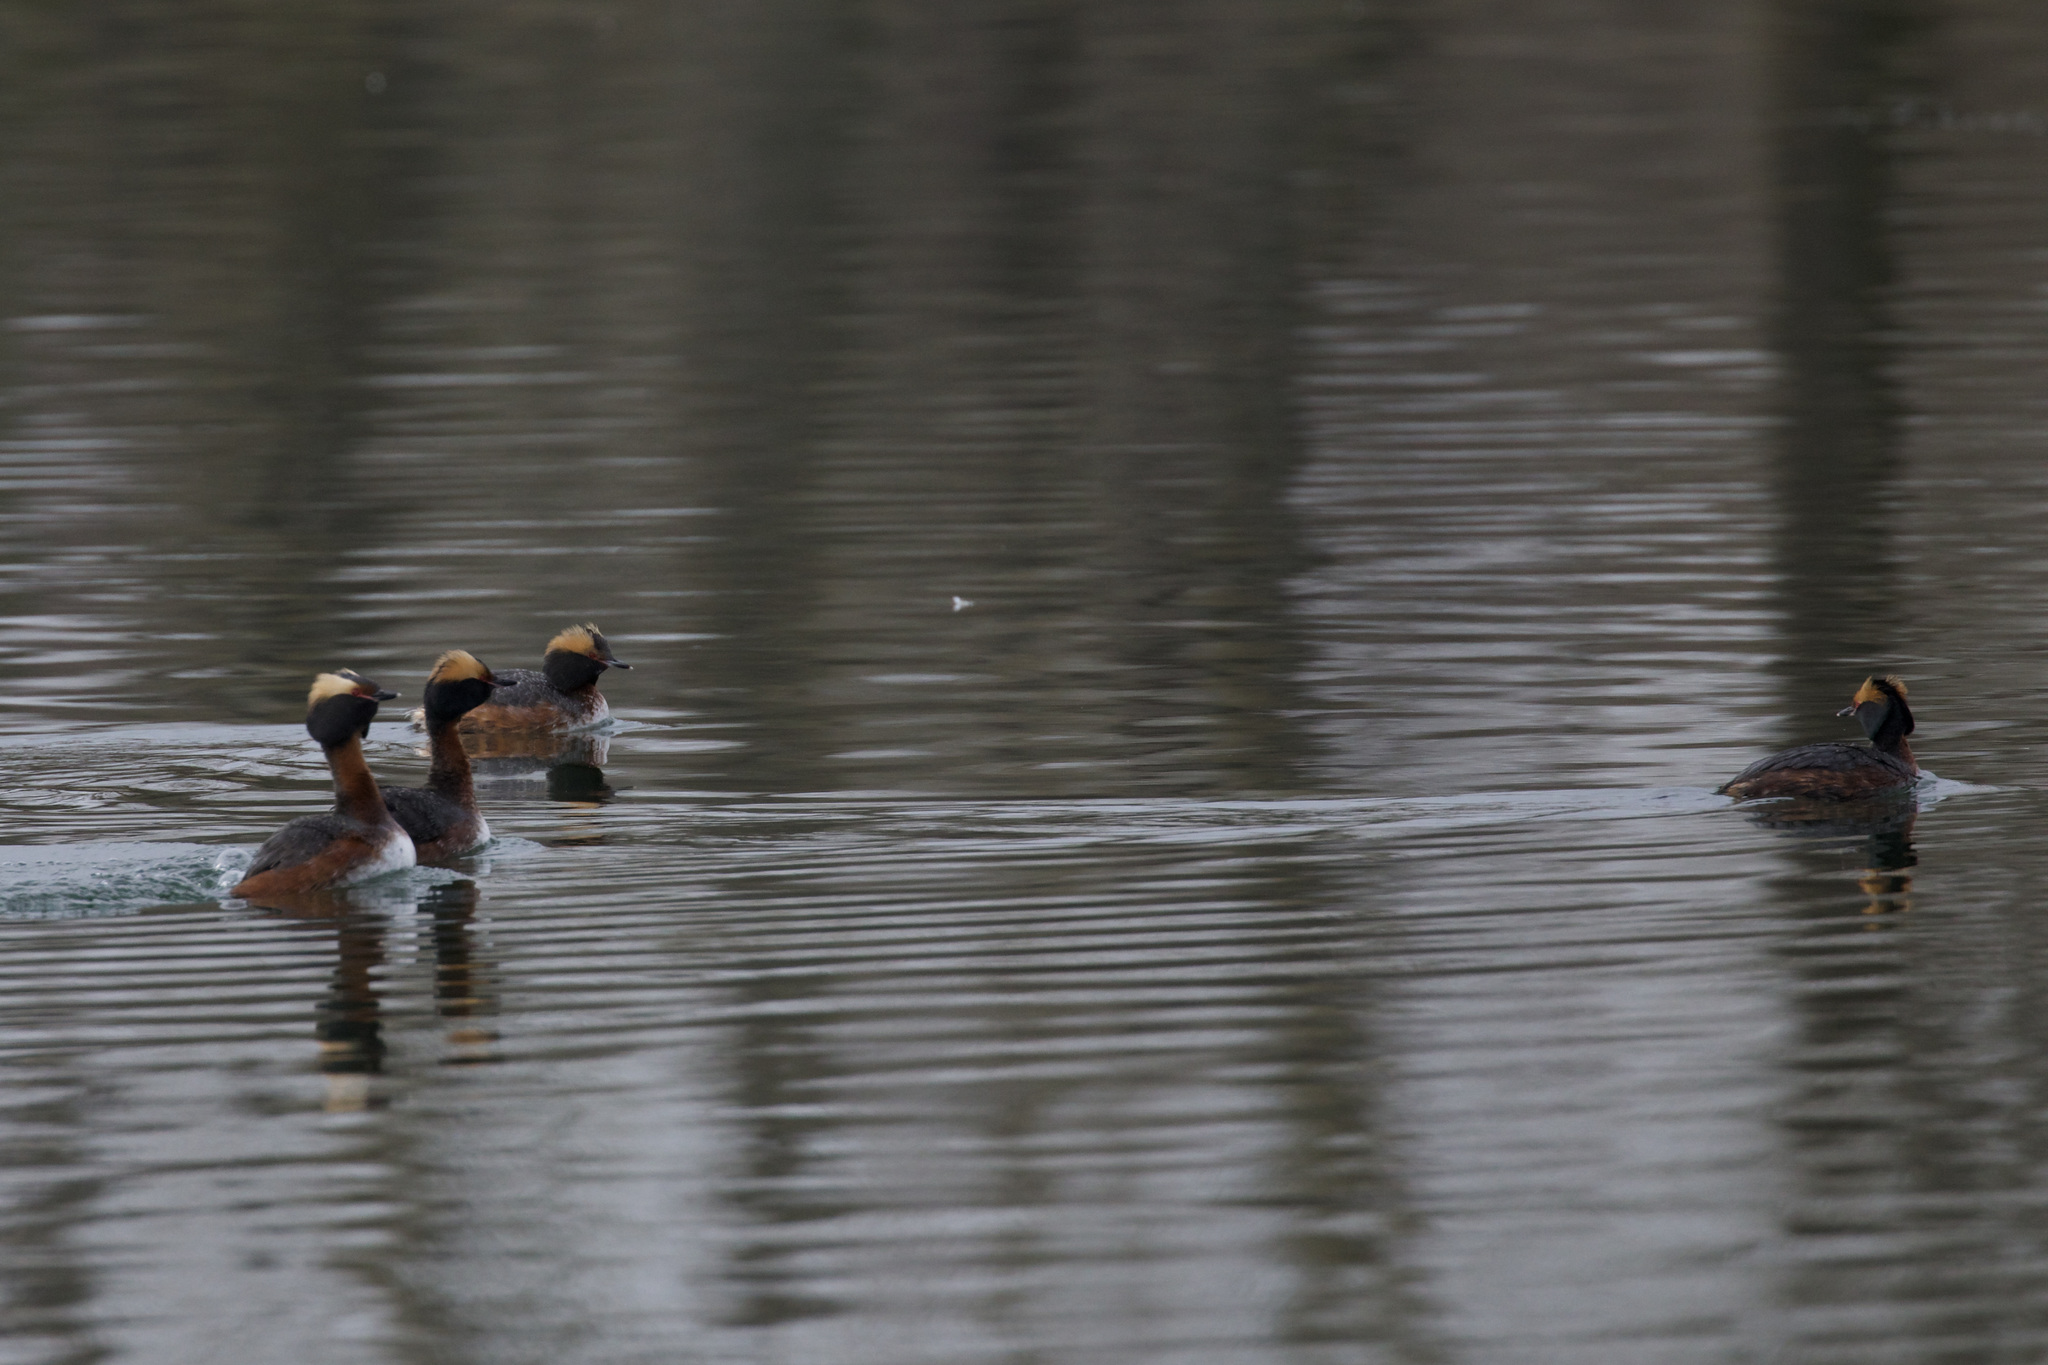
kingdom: Animalia
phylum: Chordata
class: Aves
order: Podicipediformes
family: Podicipedidae
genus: Podiceps
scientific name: Podiceps auritus
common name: Horned grebe
